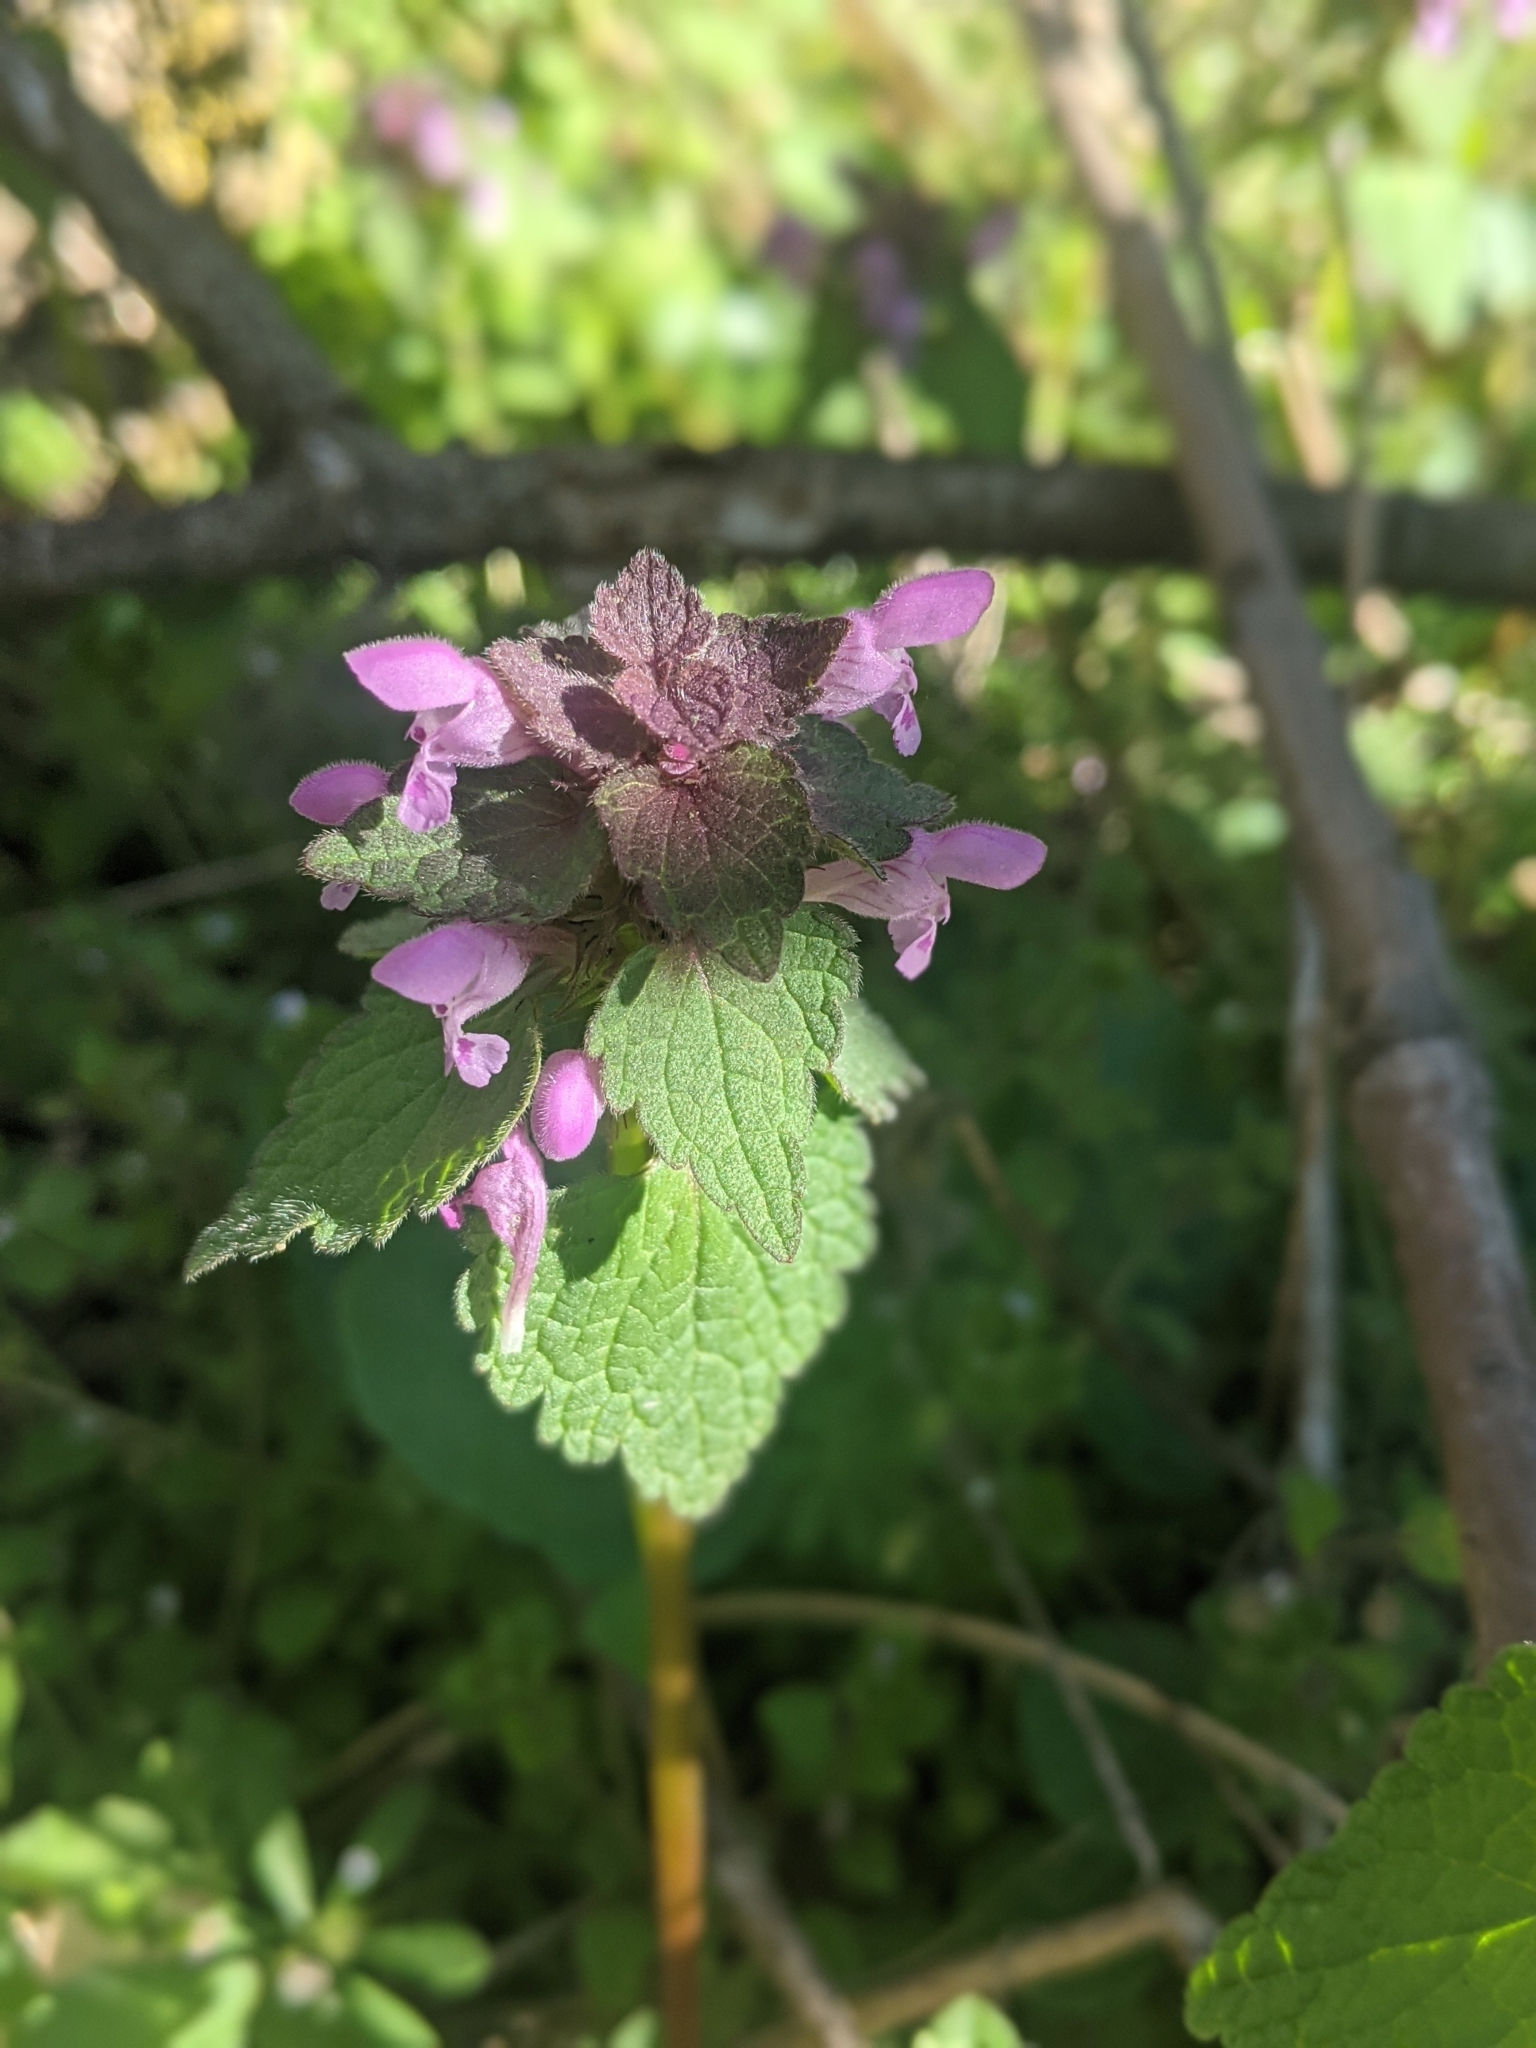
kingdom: Plantae
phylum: Tracheophyta
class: Magnoliopsida
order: Lamiales
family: Lamiaceae
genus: Lamium
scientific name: Lamium purpureum
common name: Red dead-nettle
